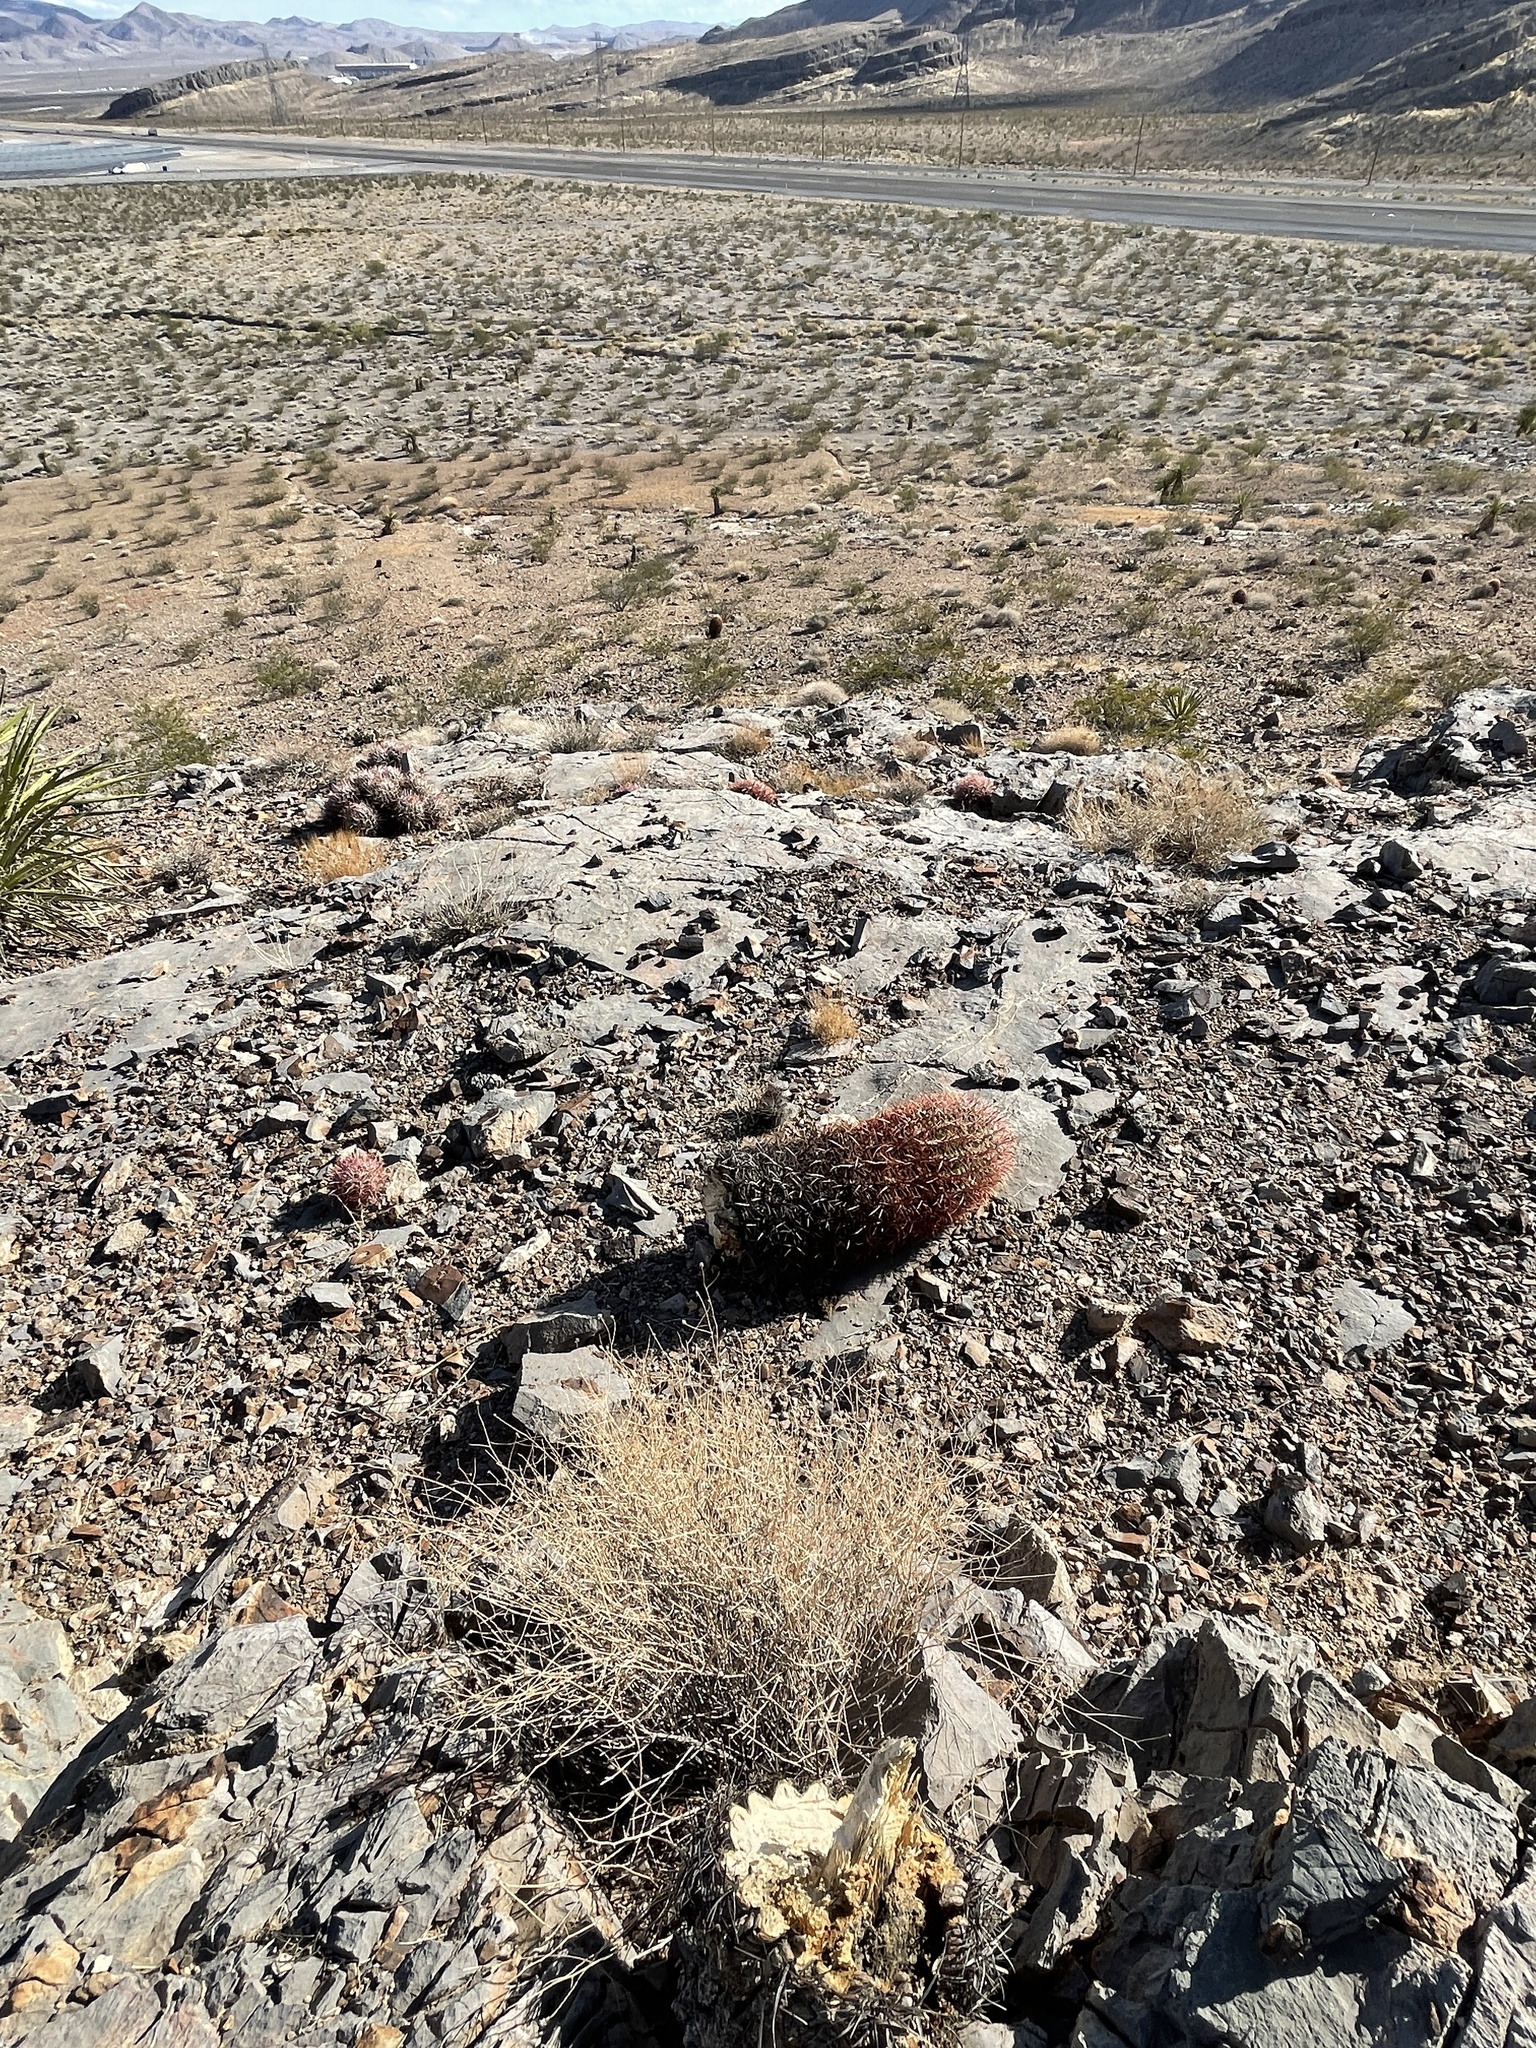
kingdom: Plantae
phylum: Tracheophyta
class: Magnoliopsida
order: Caryophyllales
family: Cactaceae
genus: Ferocactus
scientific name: Ferocactus cylindraceus
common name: California barrel cactus
